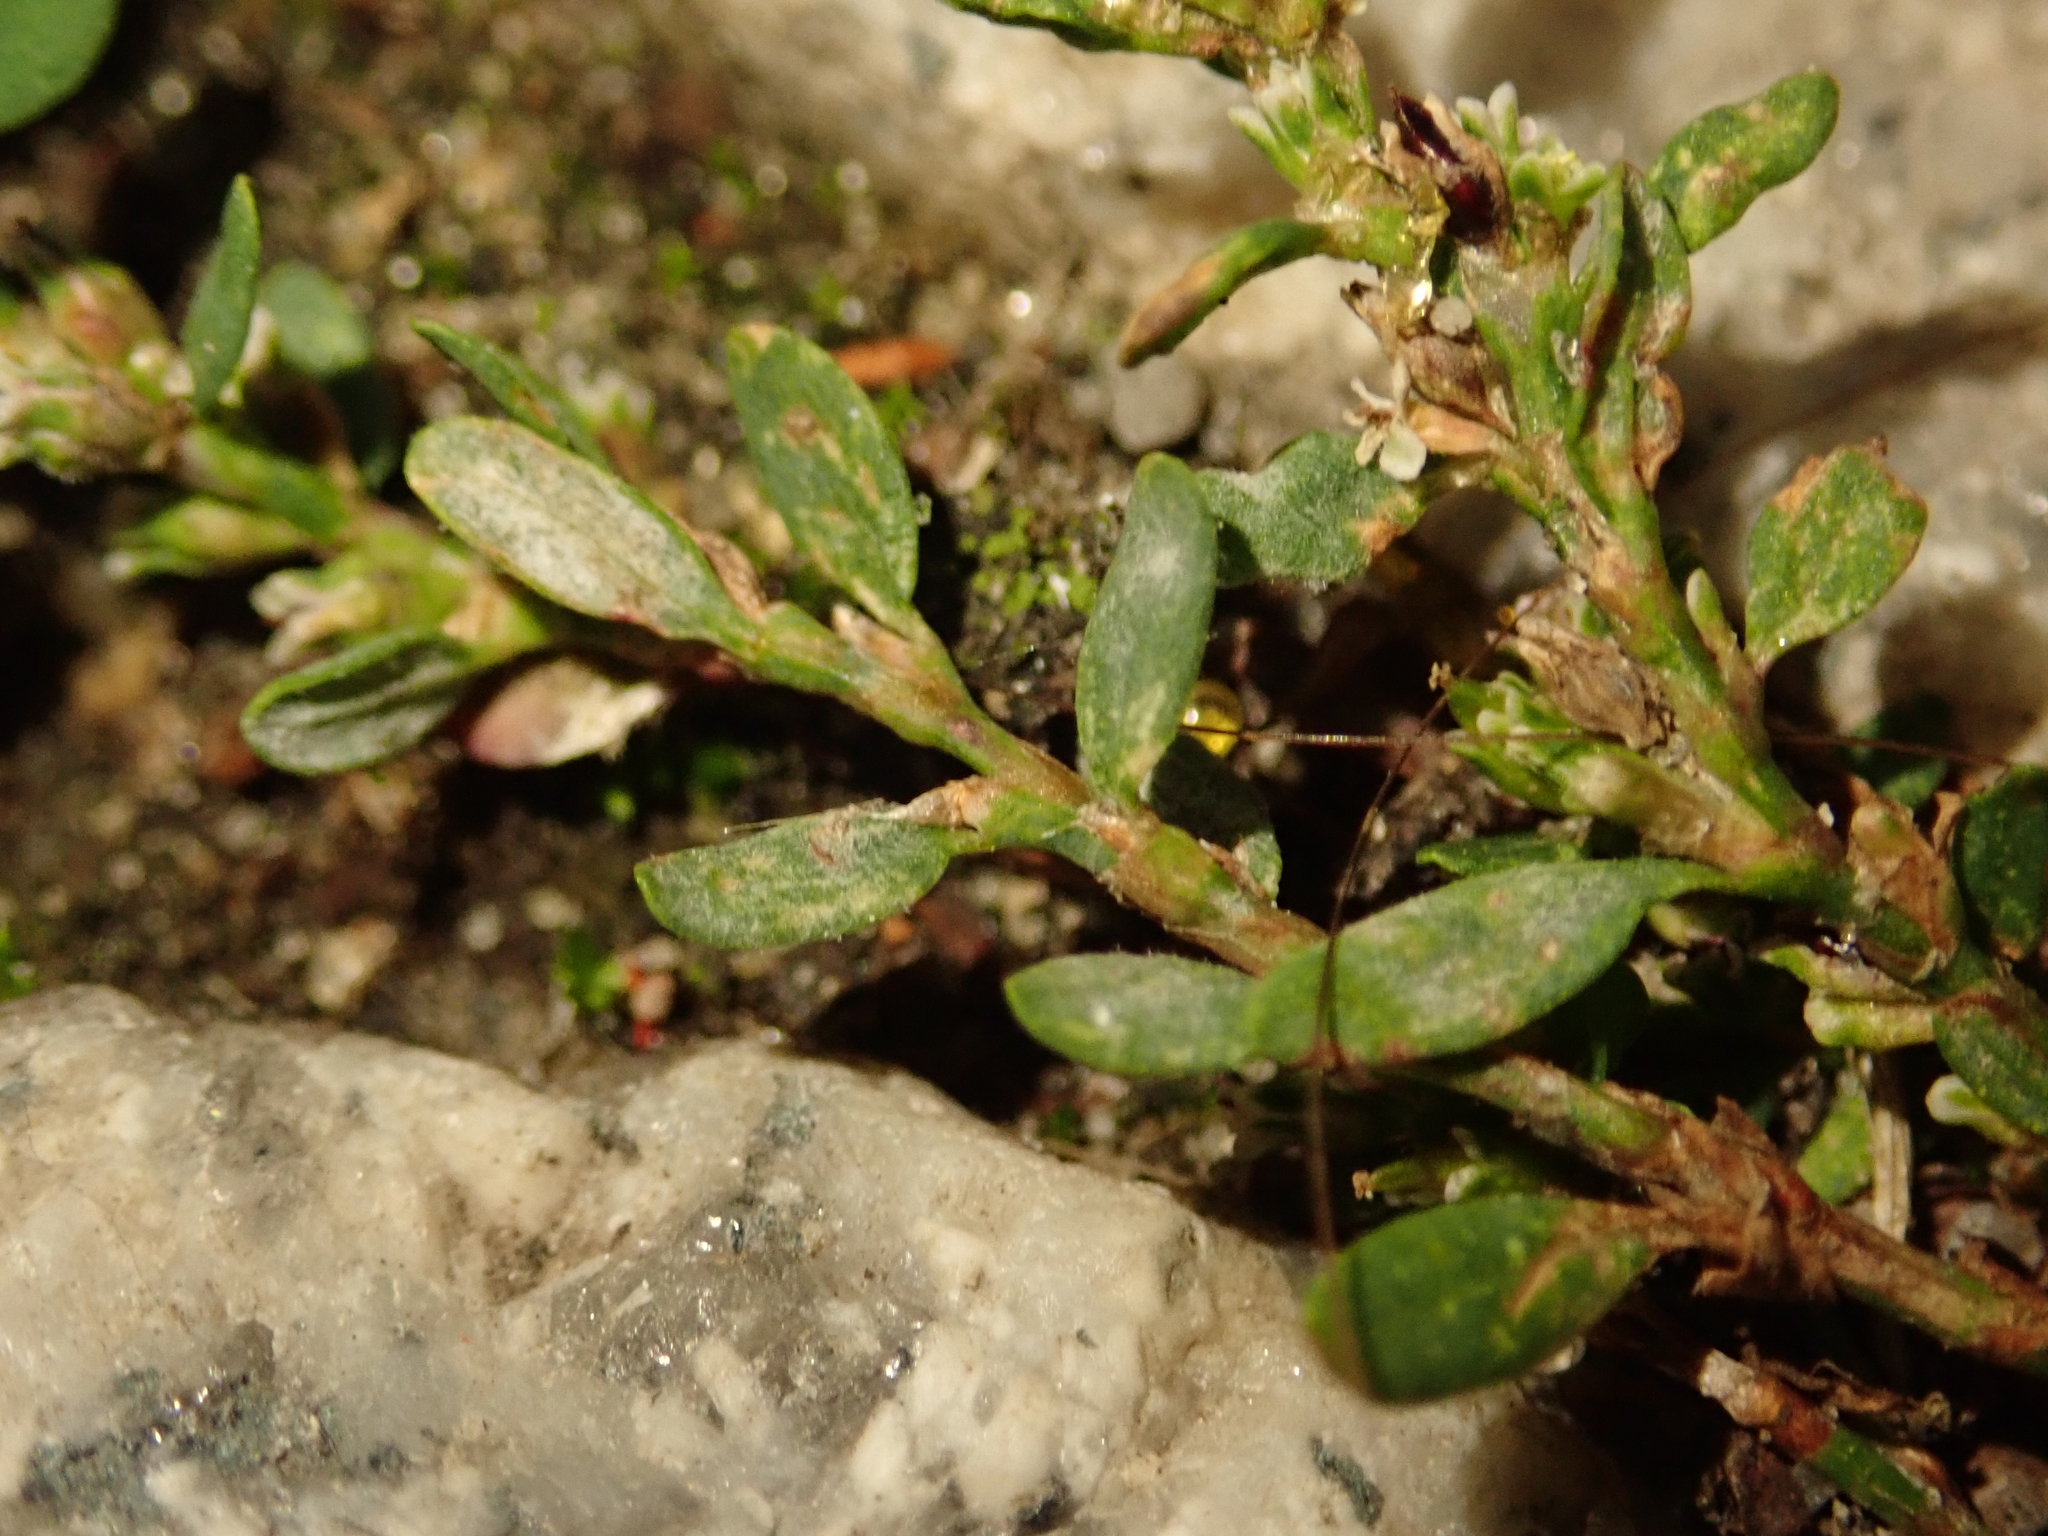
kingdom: Fungi
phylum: Ascomycota
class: Leotiomycetes
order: Helotiales
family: Erysiphaceae
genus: Erysiphe
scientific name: Erysiphe polygoni
